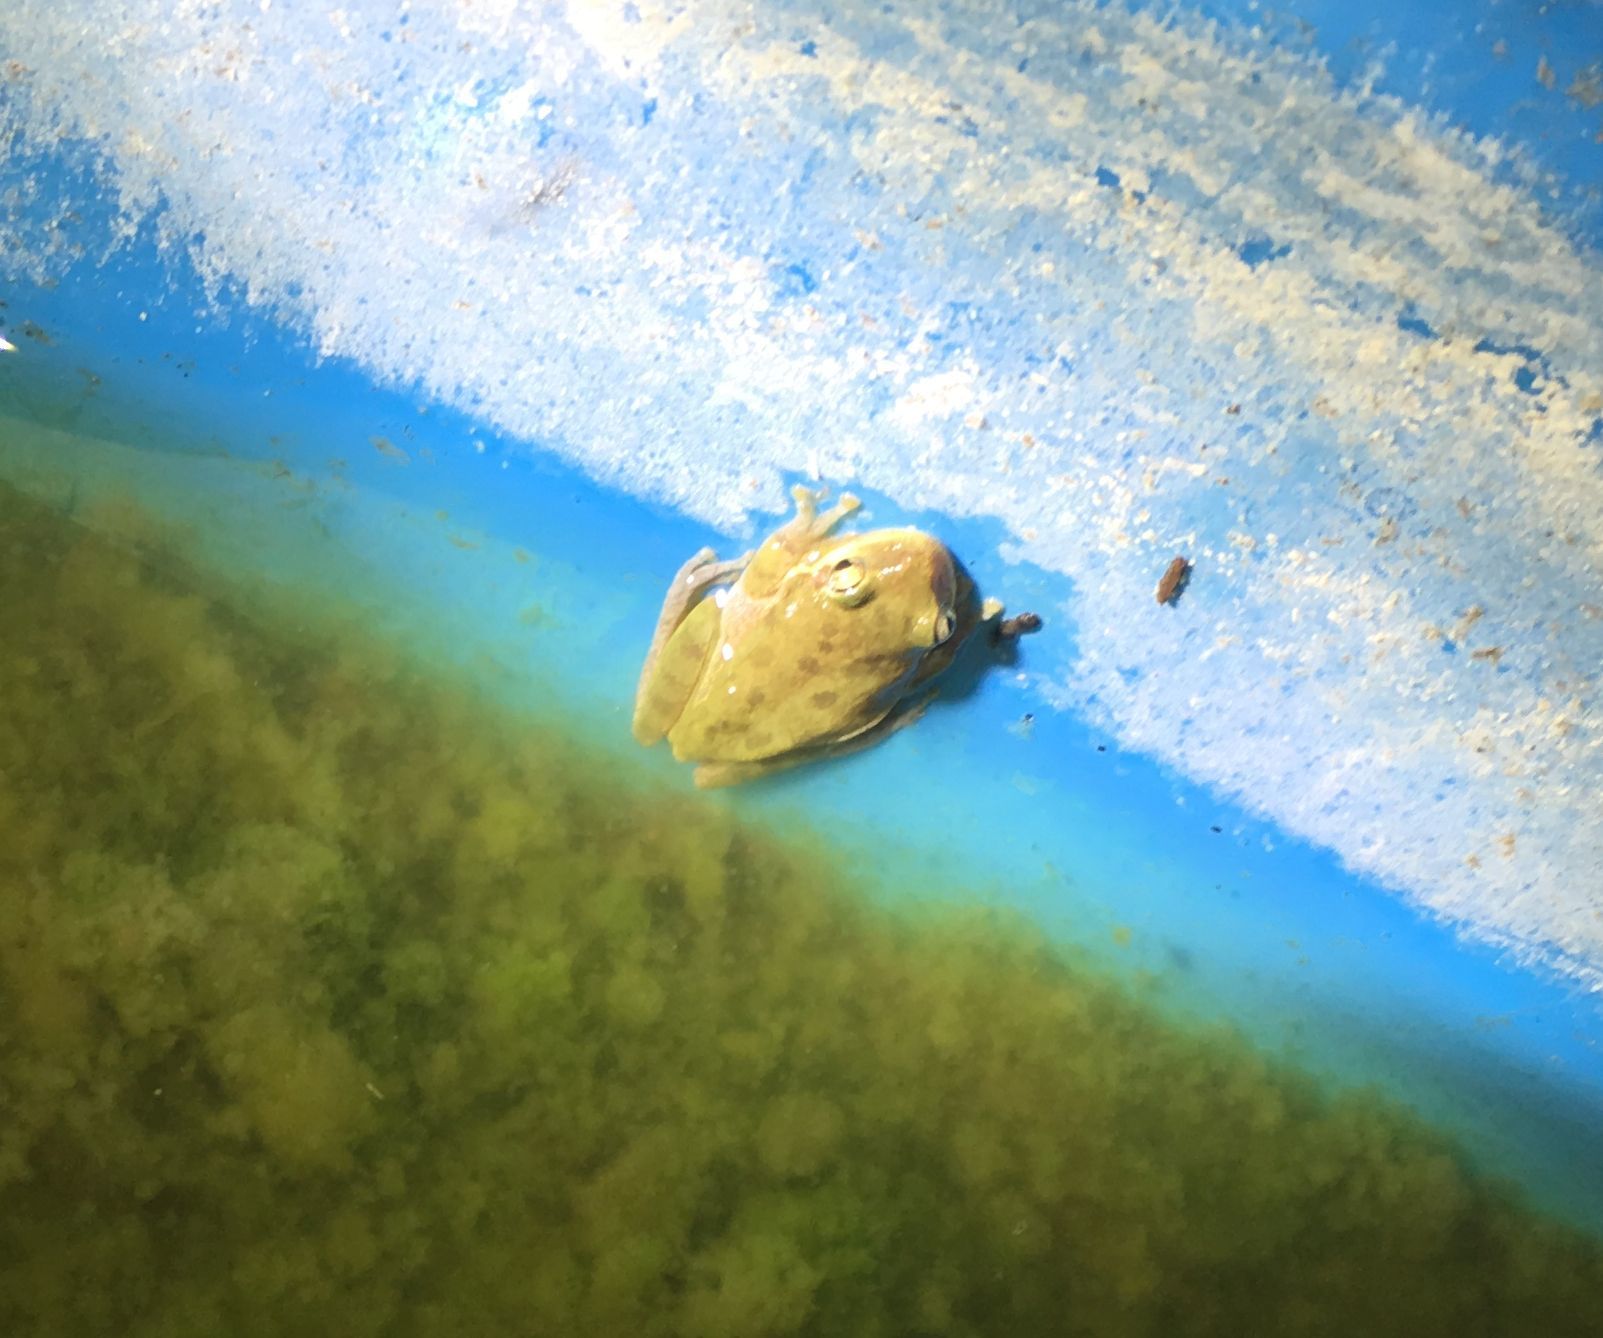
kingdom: Animalia
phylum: Chordata
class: Amphibia
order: Anura
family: Hylidae
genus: Dryophytes
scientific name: Dryophytes squirellus
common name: Squirrel treefrog
